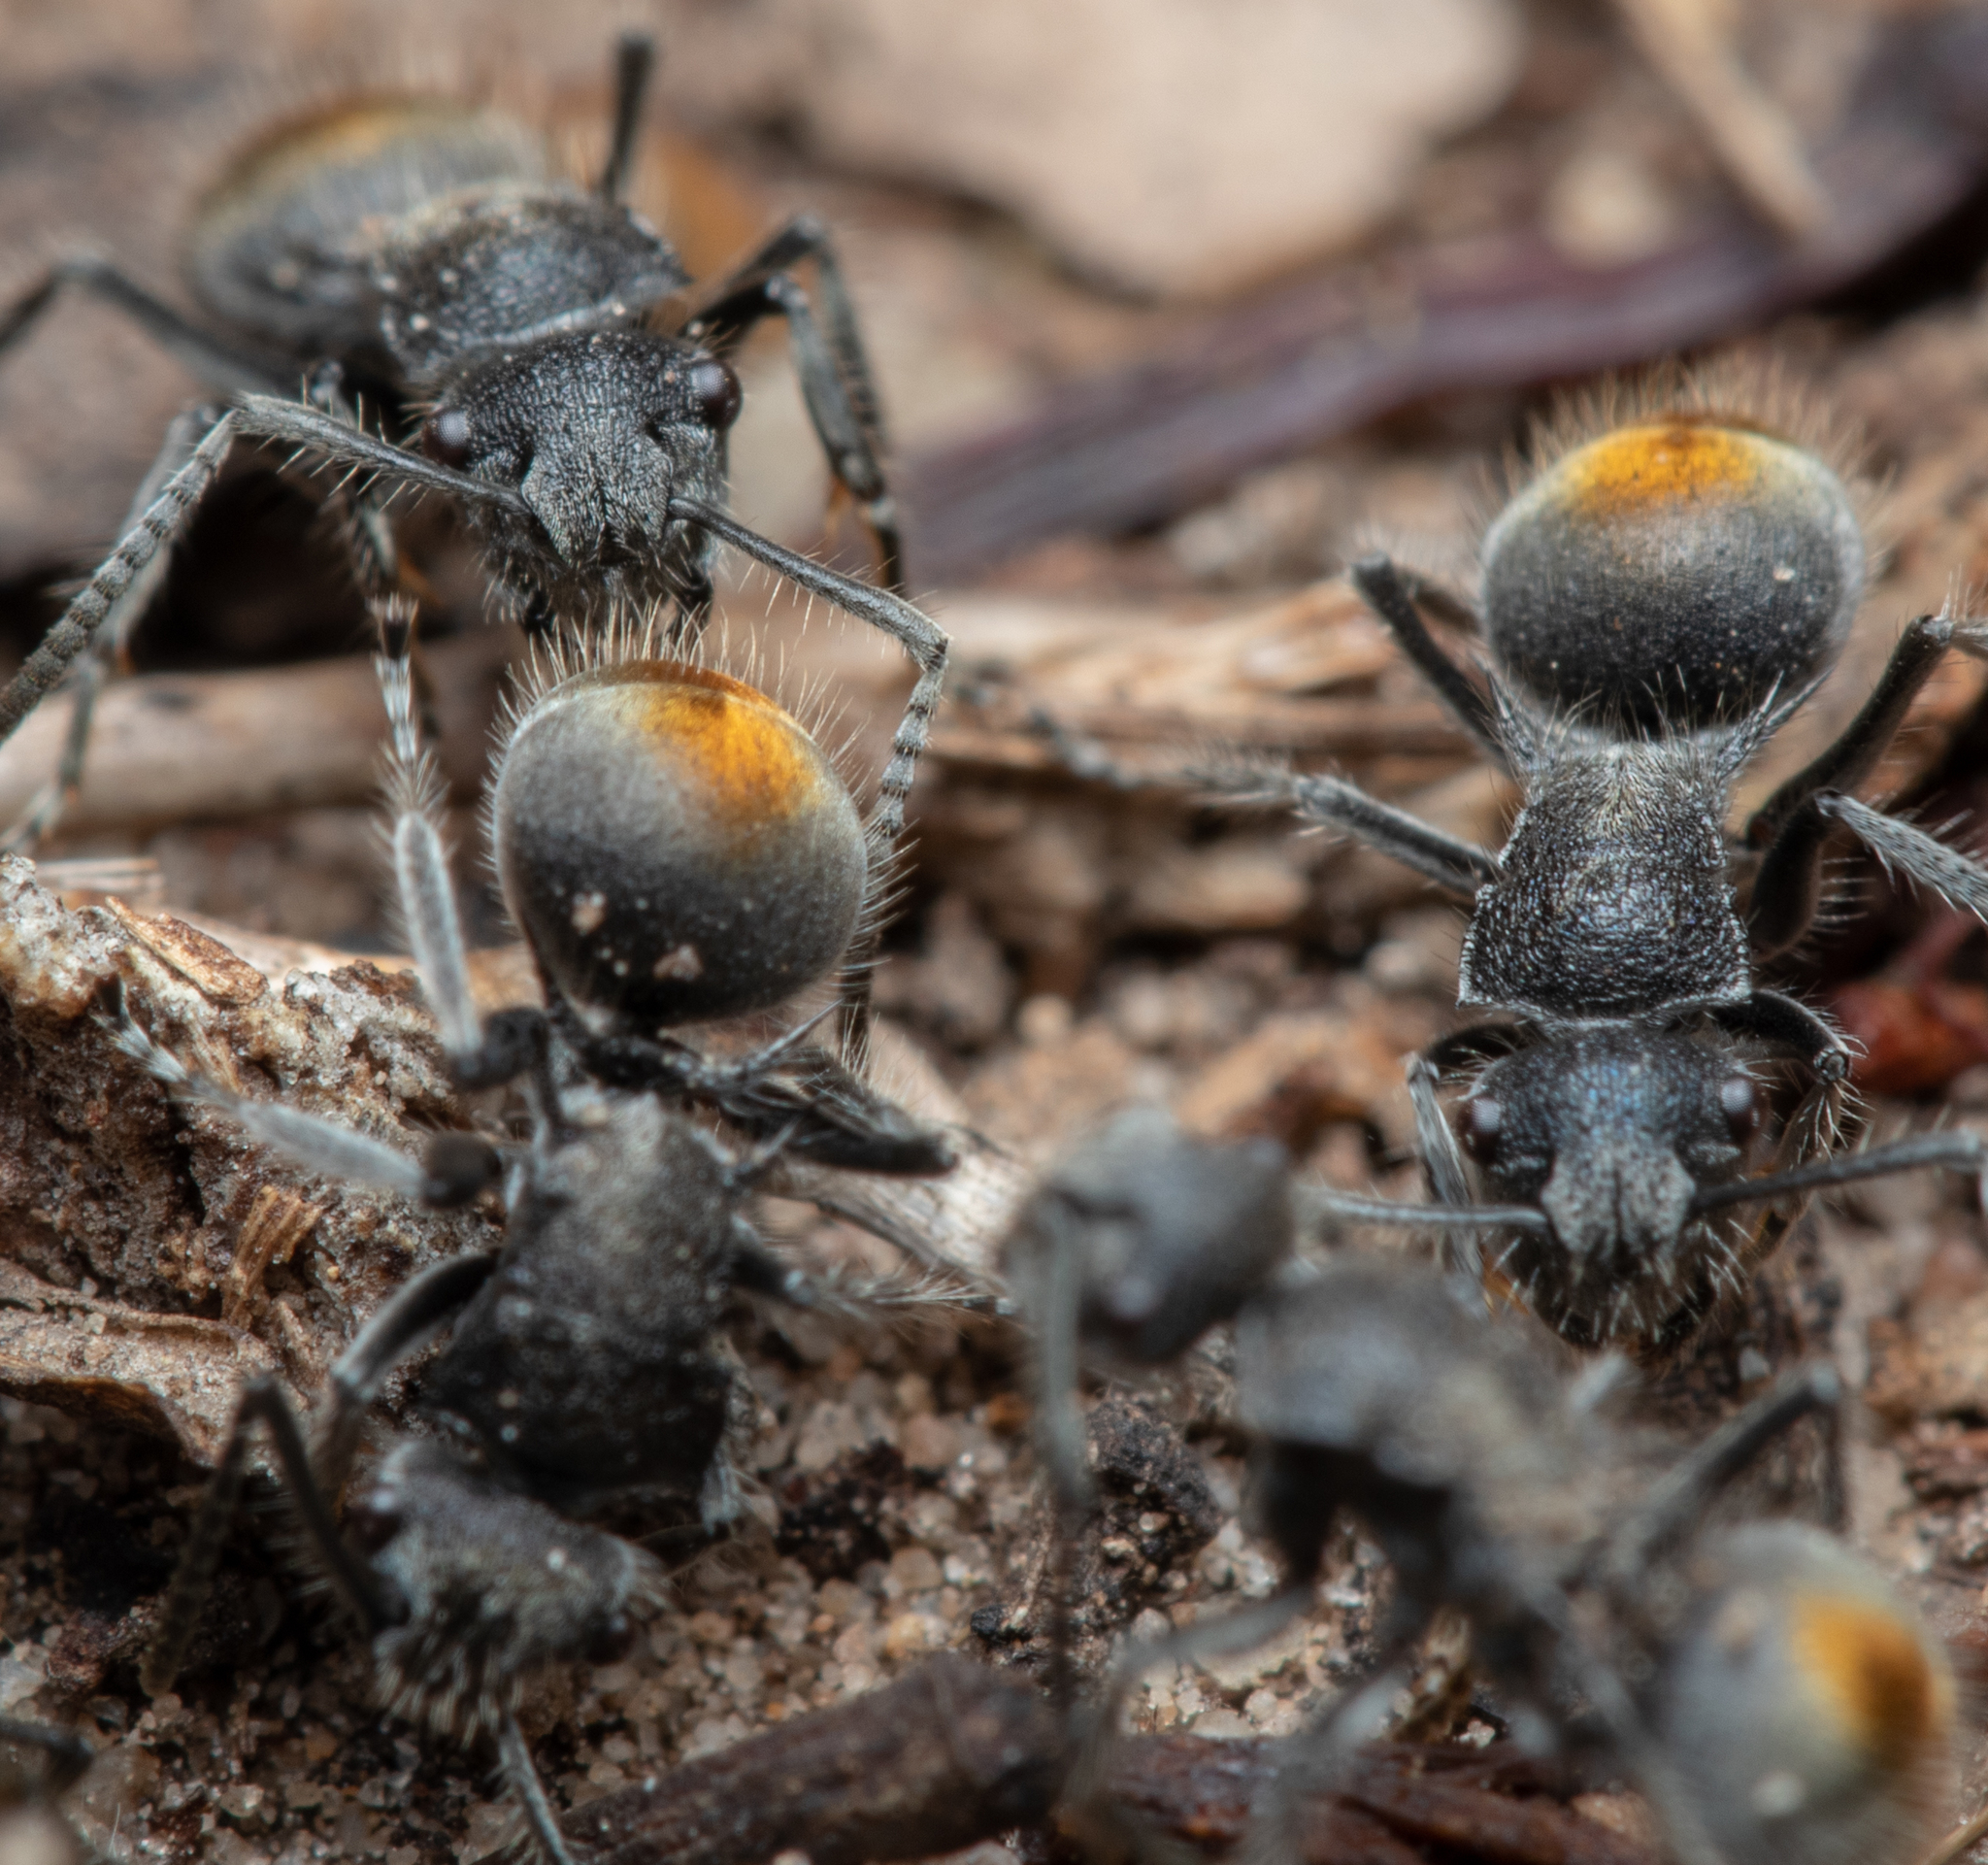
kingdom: Animalia
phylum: Arthropoda
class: Insecta
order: Hymenoptera
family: Formicidae
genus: Polyrhachis
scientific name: Polyrhachis vermiculosa
